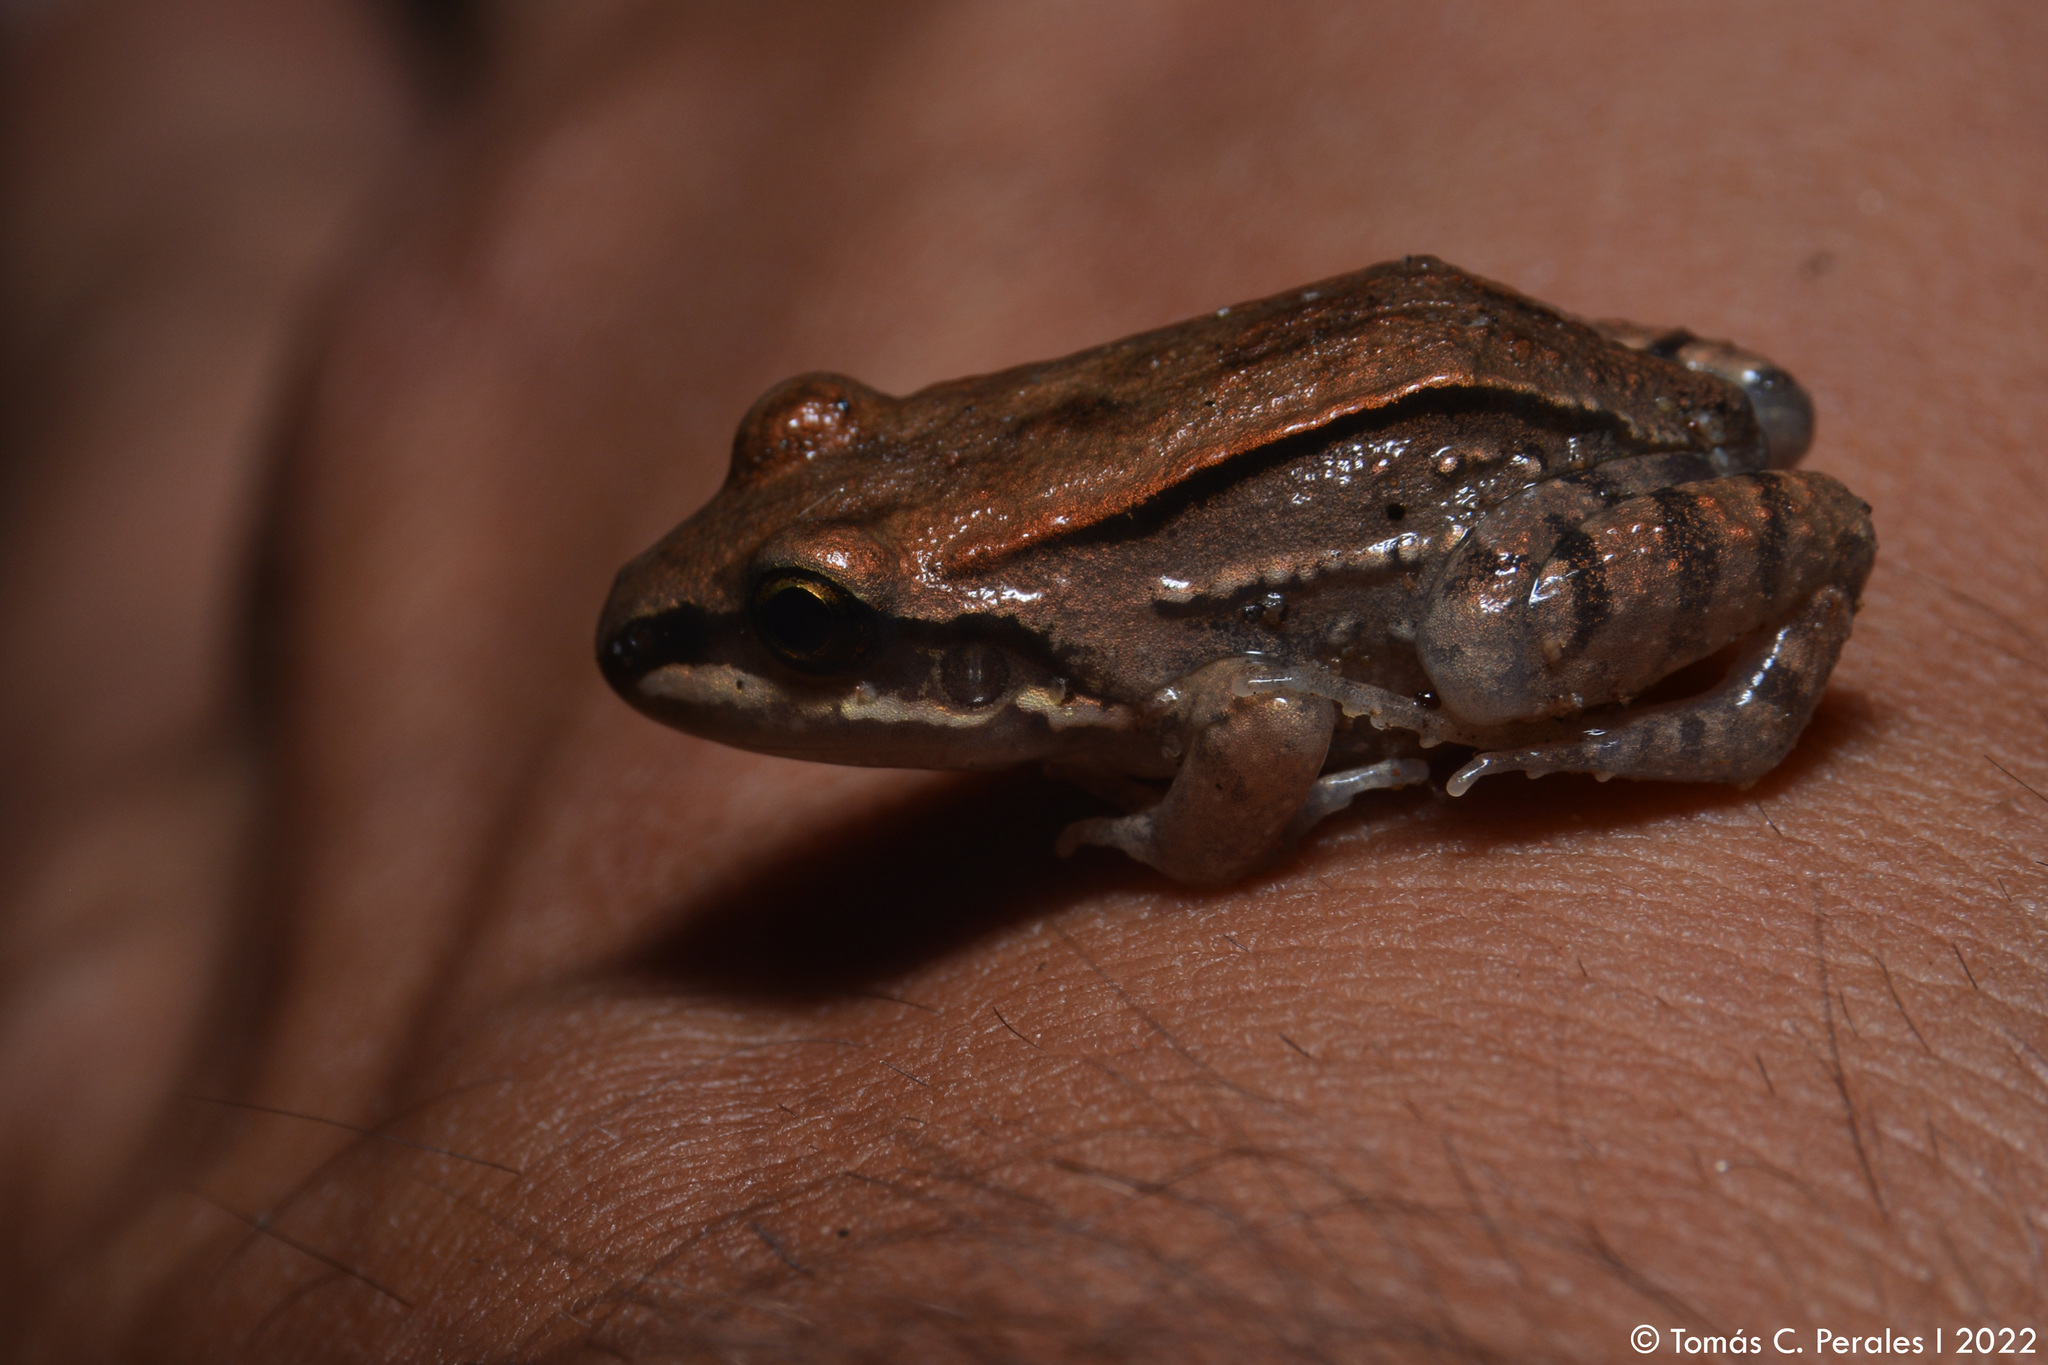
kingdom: Animalia
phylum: Chordata
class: Amphibia
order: Anura
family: Leptodactylidae
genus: Leptodactylus
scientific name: Leptodactylus mystacinus
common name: Moustached frog
